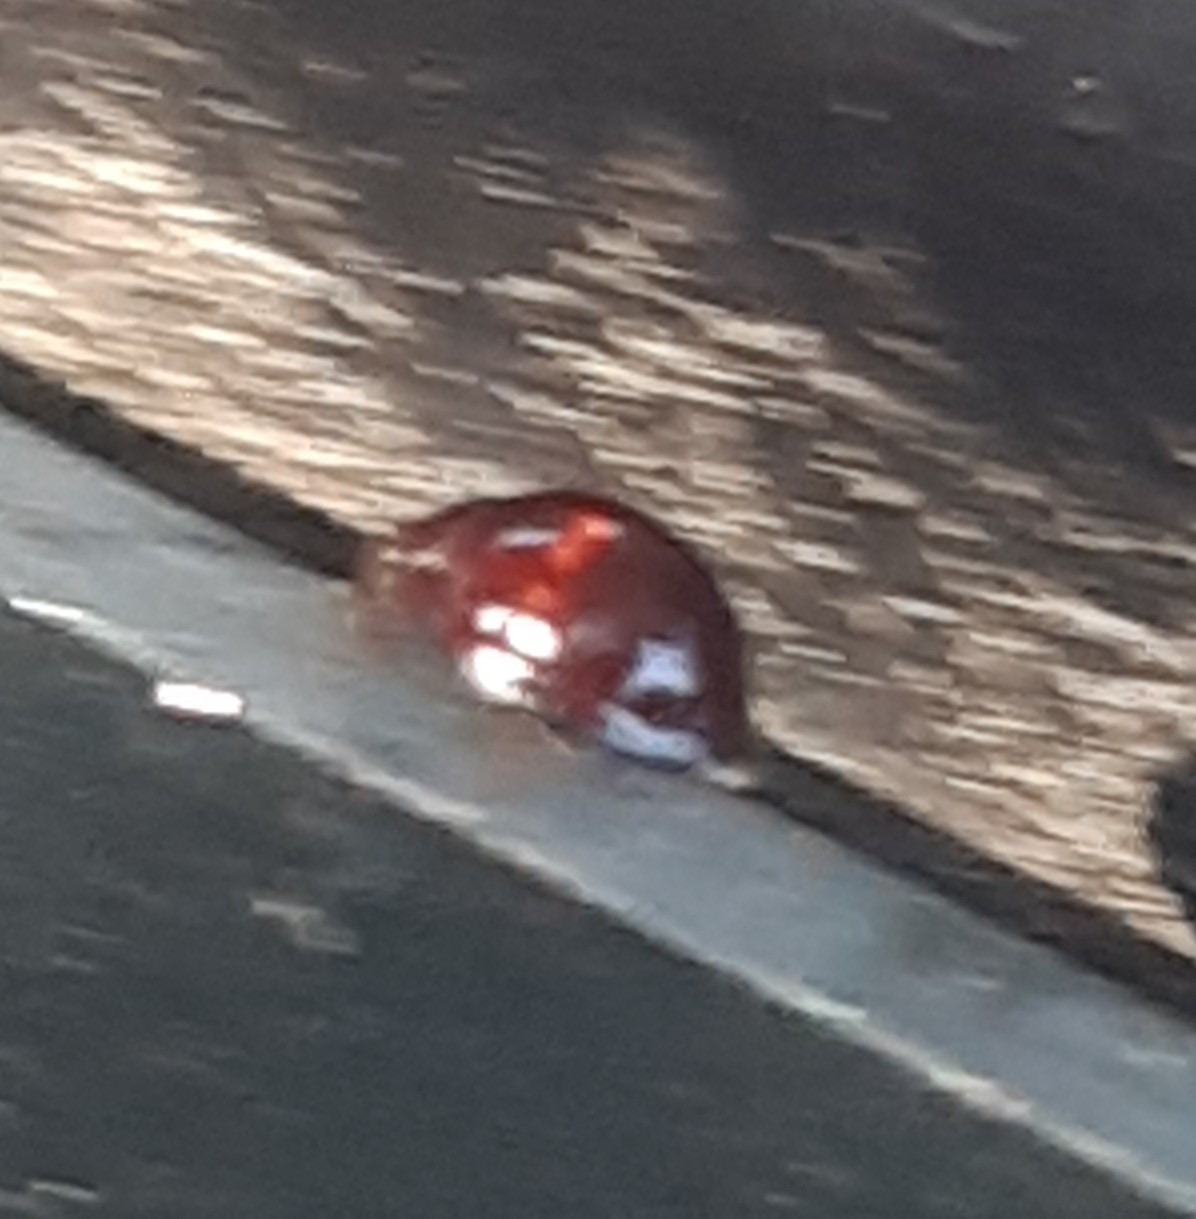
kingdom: Animalia
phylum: Arthropoda
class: Insecta
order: Coleoptera
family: Coccinellidae
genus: Chilocorus
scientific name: Chilocorus bipustulatus
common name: Heather ladybird
